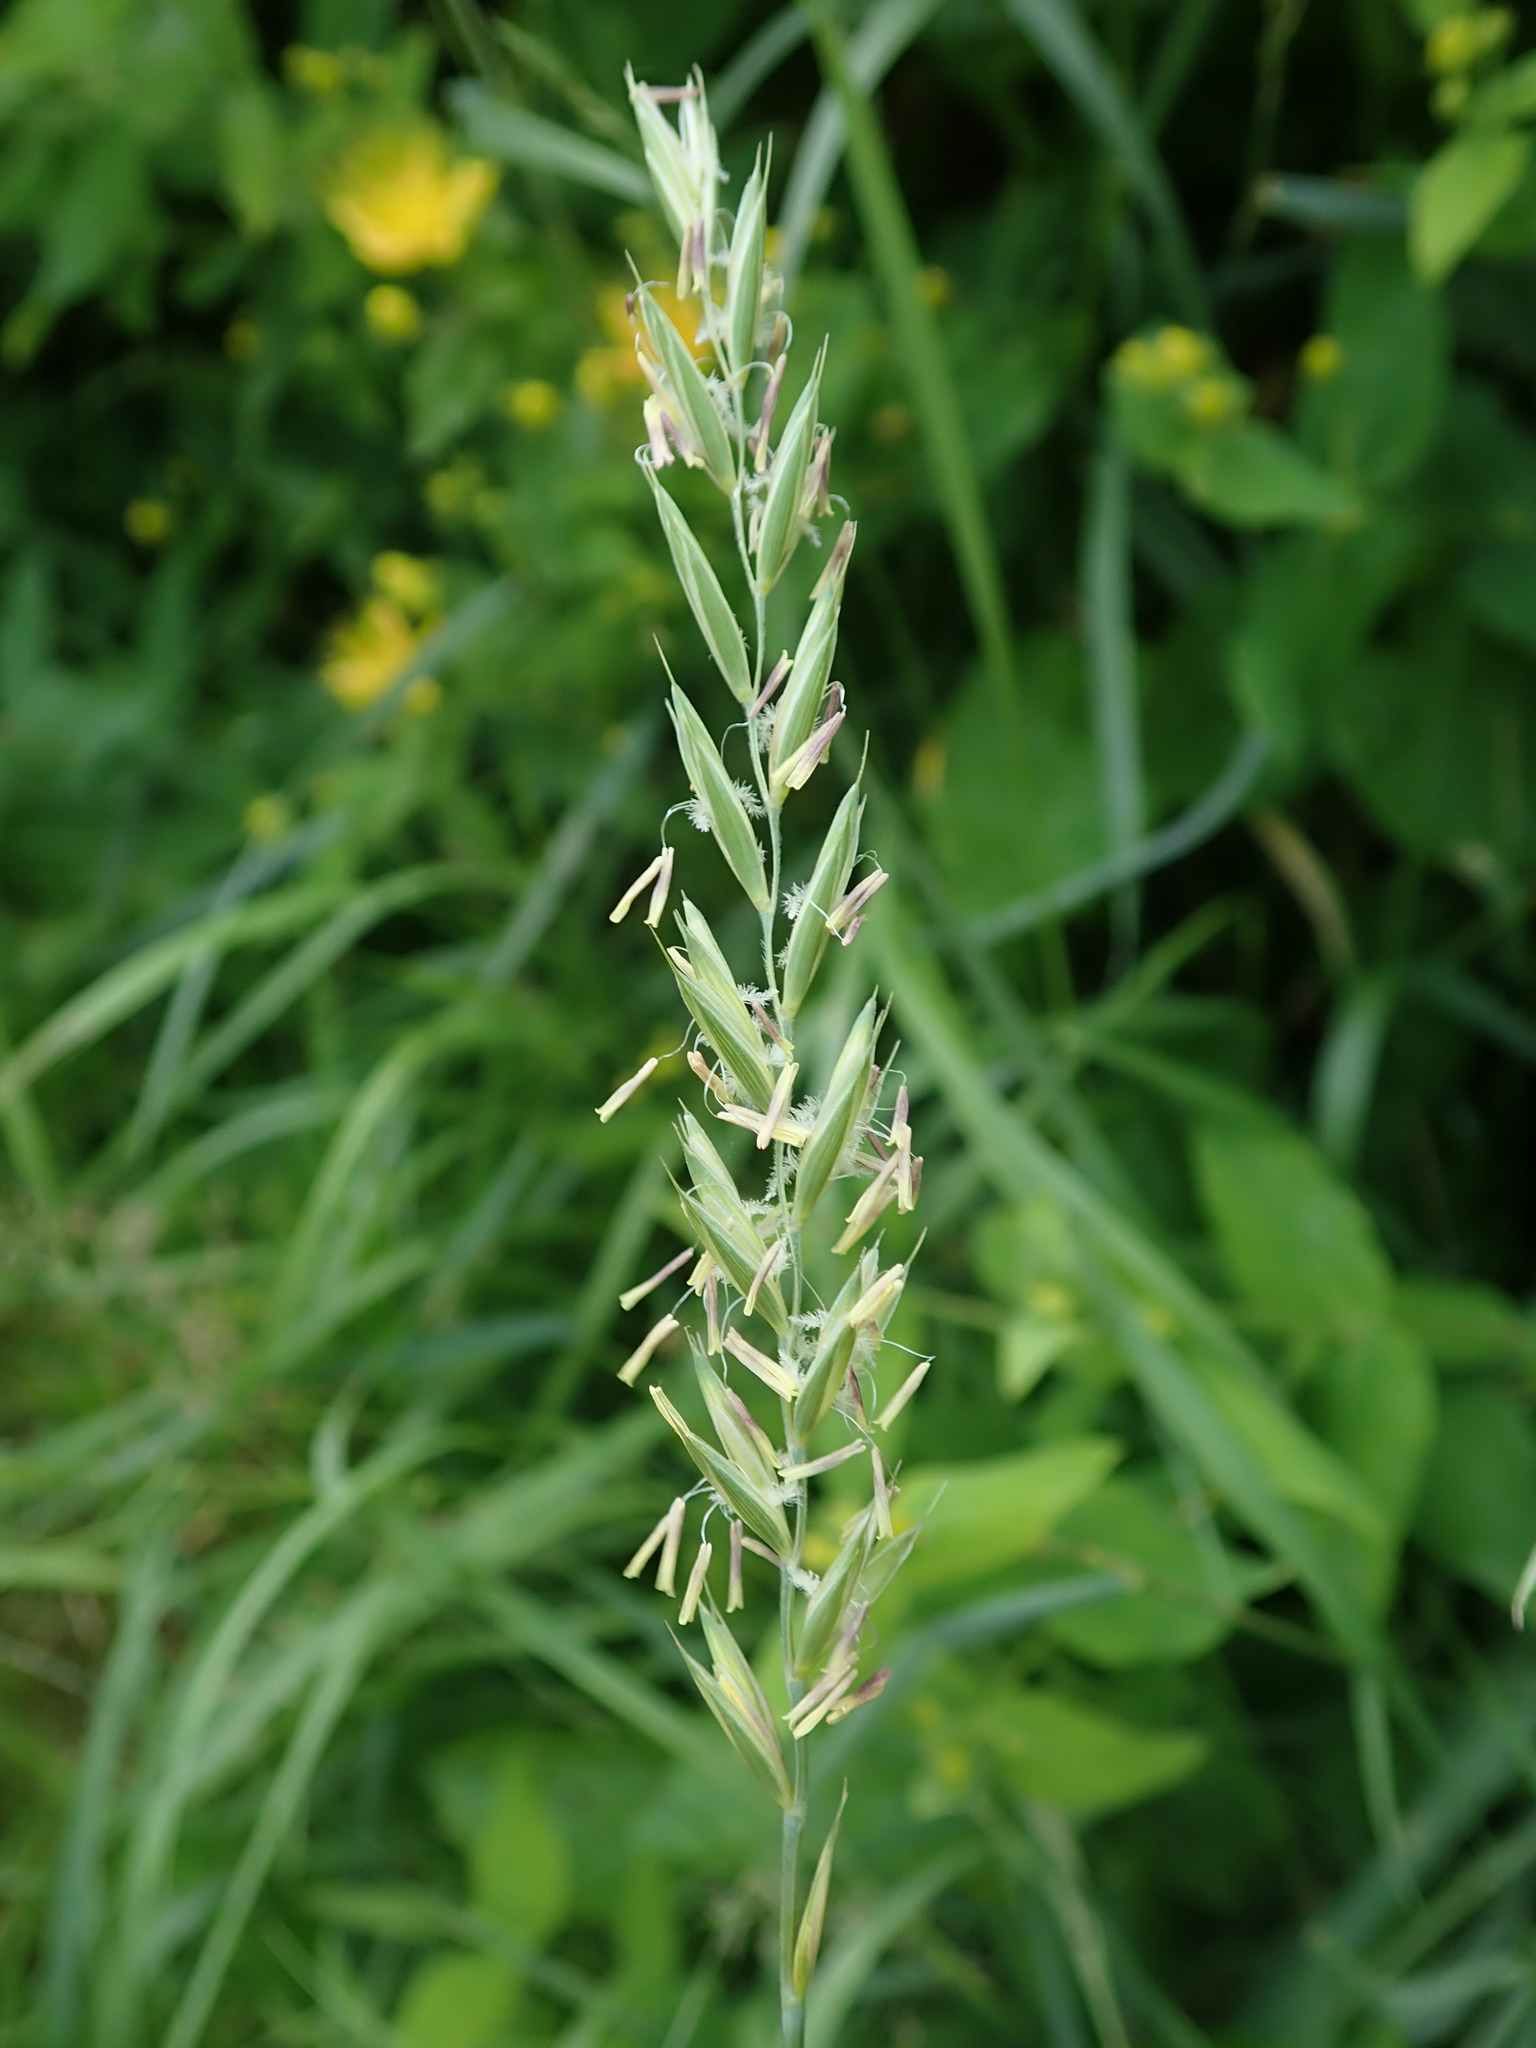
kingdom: Plantae
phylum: Tracheophyta
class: Liliopsida
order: Poales
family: Poaceae
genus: Elymus
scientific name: Elymus repens
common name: Quackgrass
